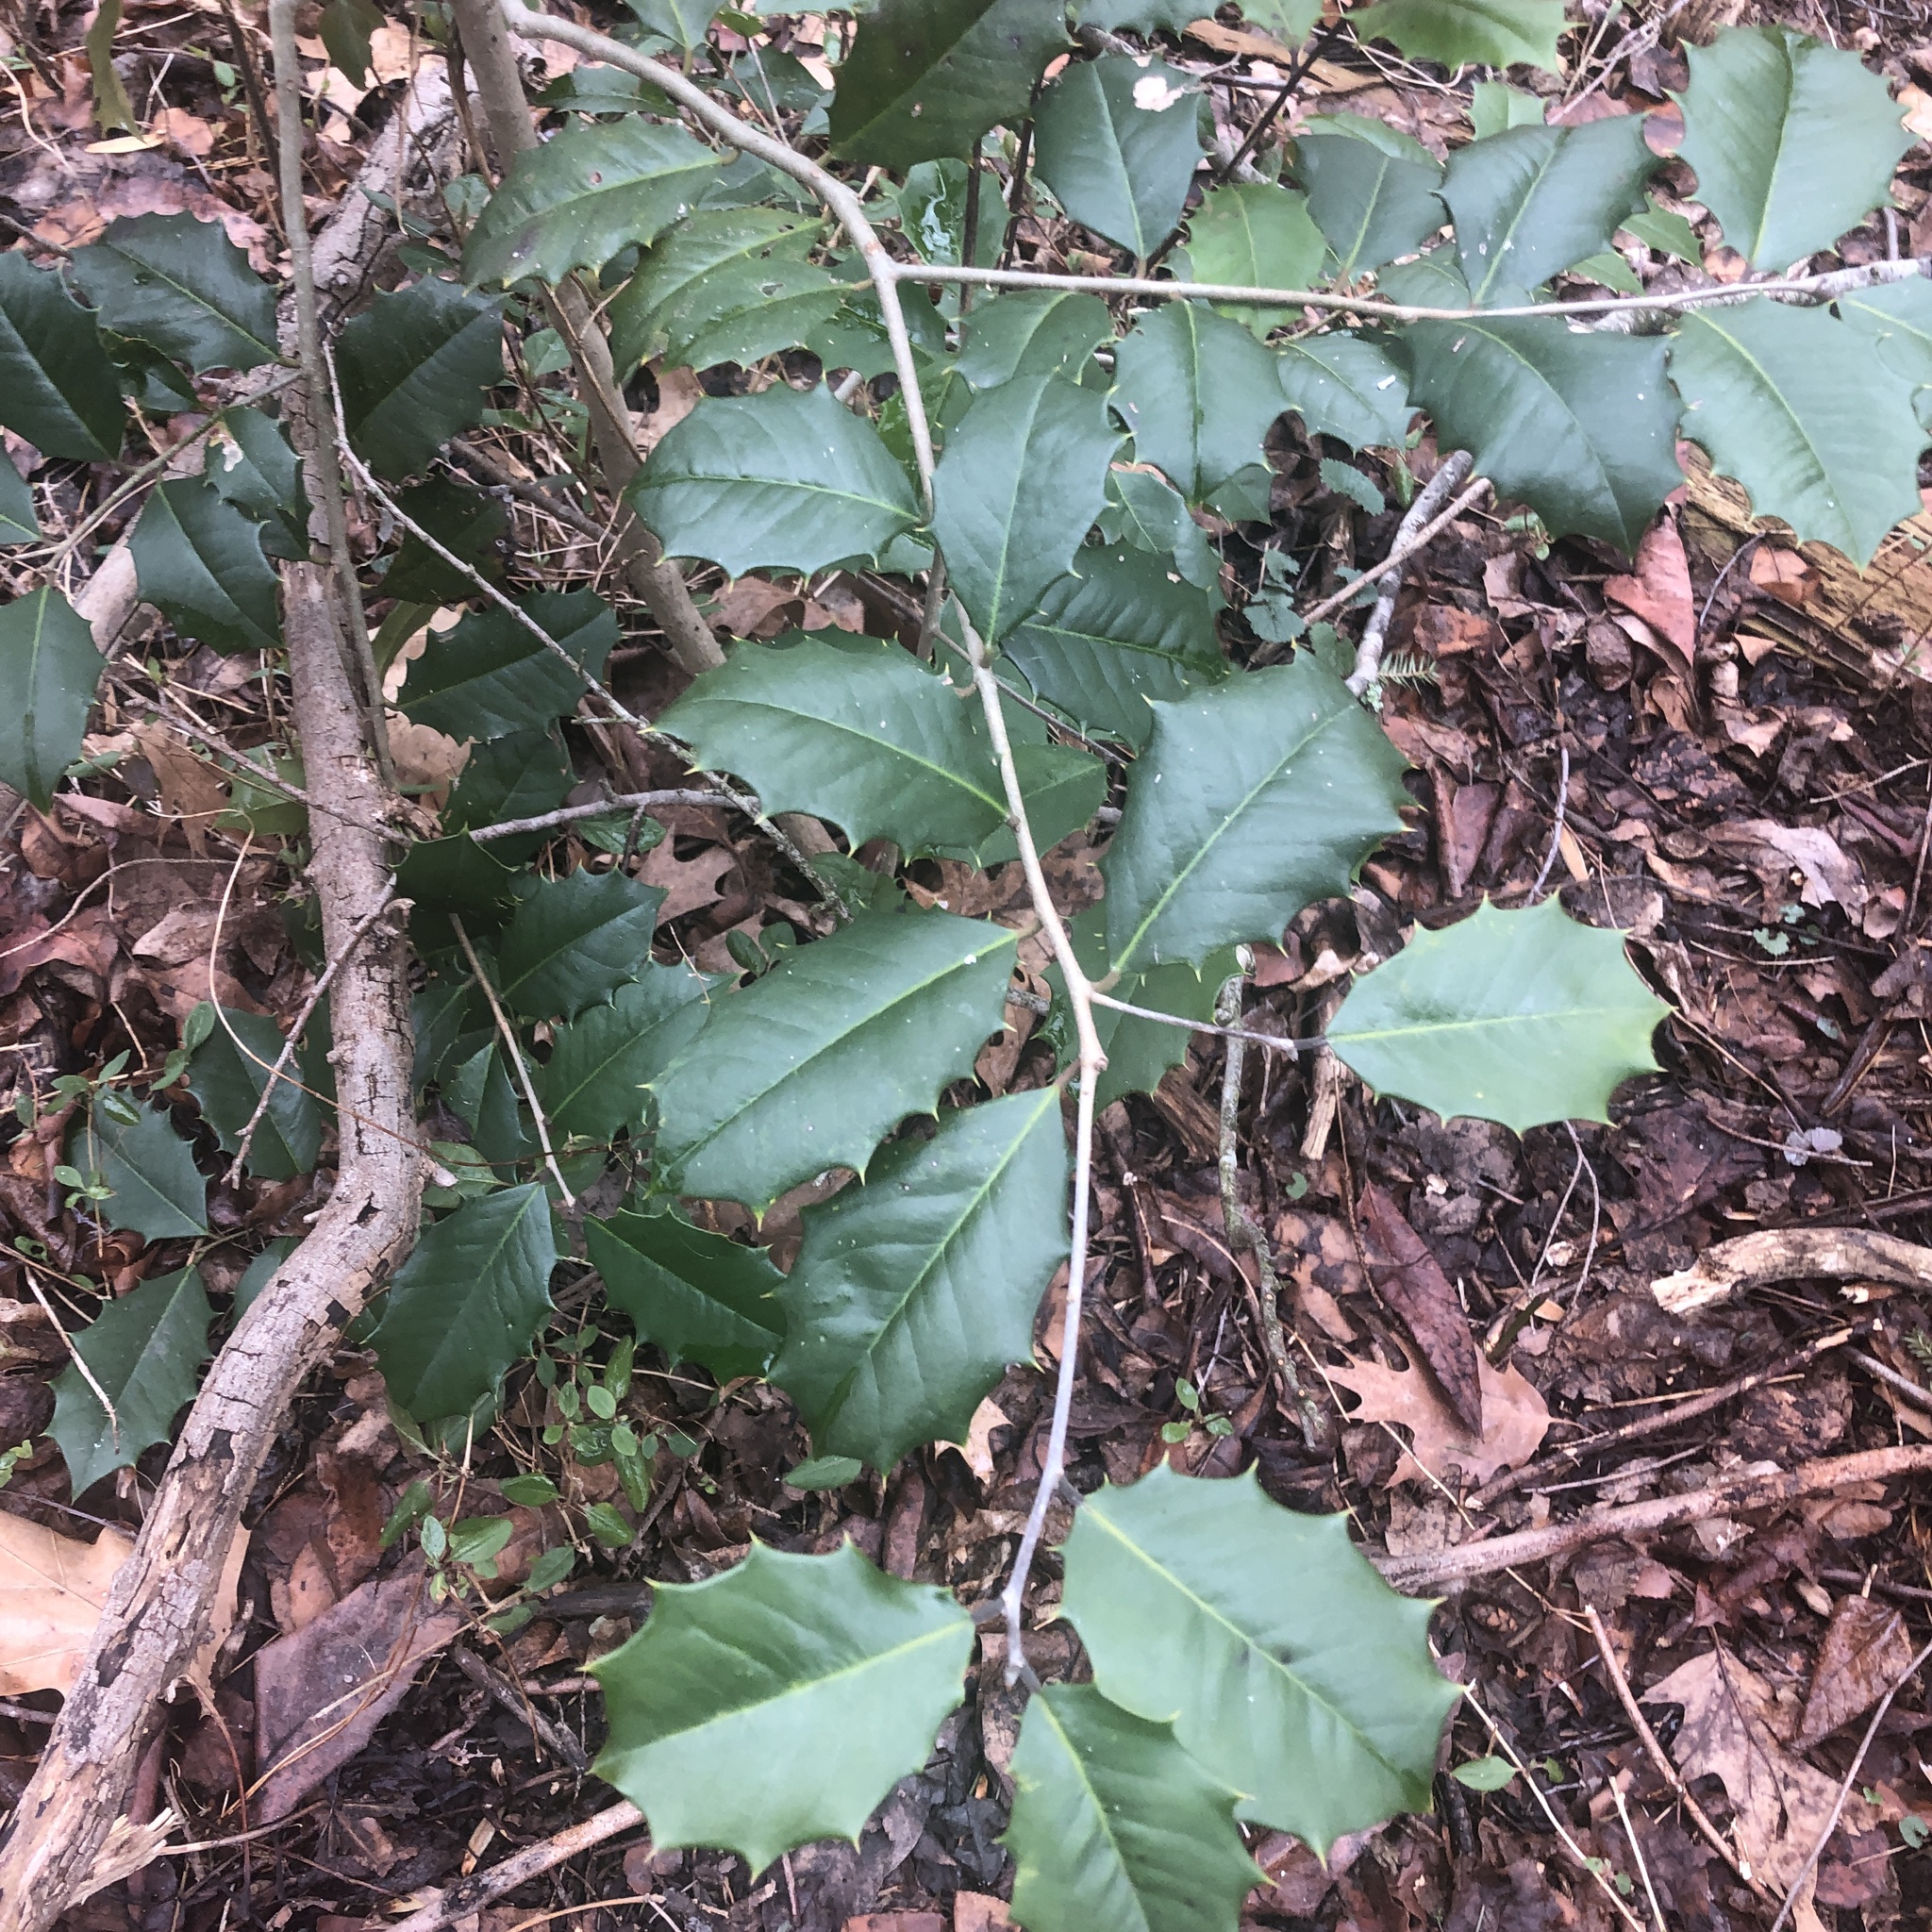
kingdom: Plantae
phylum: Tracheophyta
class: Magnoliopsida
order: Aquifoliales
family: Aquifoliaceae
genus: Ilex
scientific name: Ilex opaca
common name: American holly
